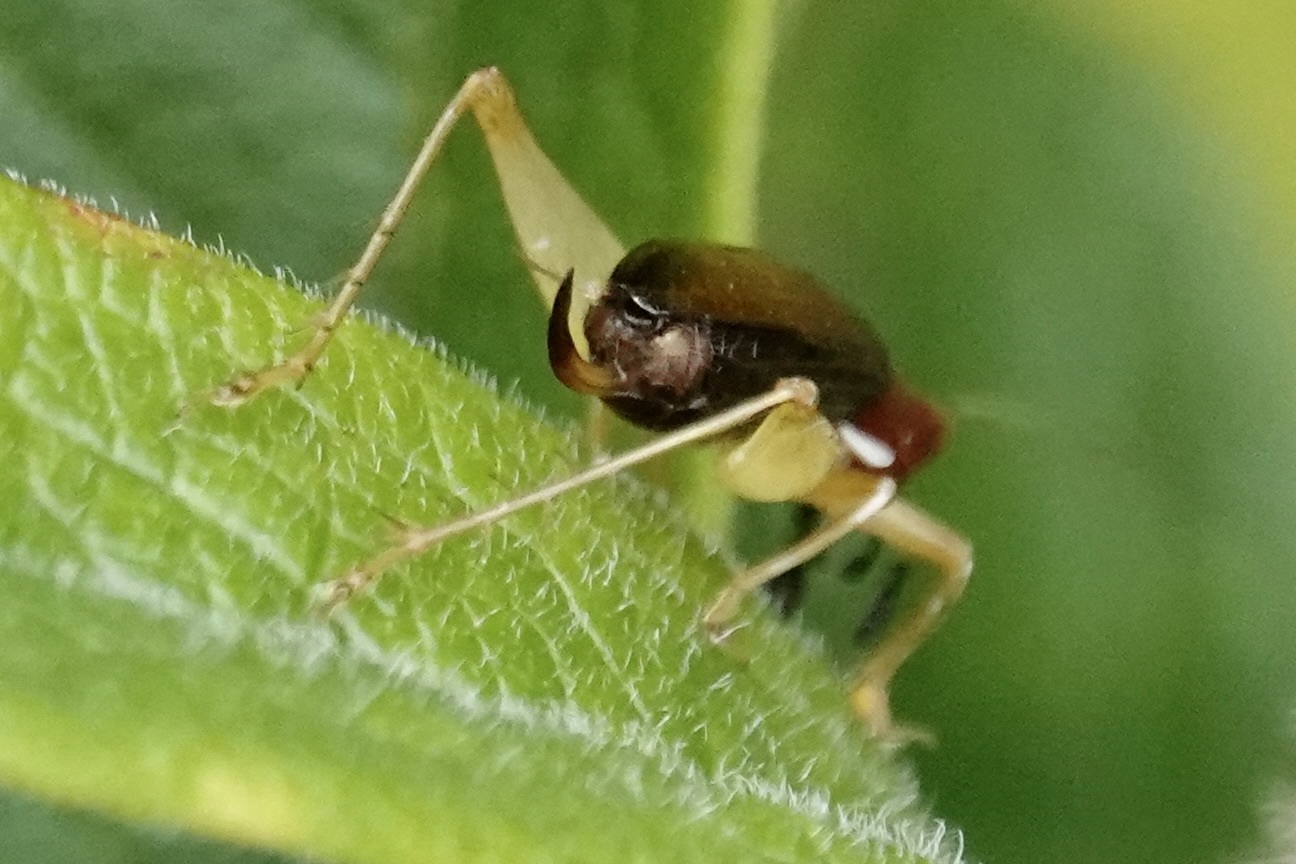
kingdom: Animalia
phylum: Arthropoda
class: Insecta
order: Orthoptera
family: Trigonidiidae
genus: Phyllopalpus
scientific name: Phyllopalpus pulchellus
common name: Handsome trig
